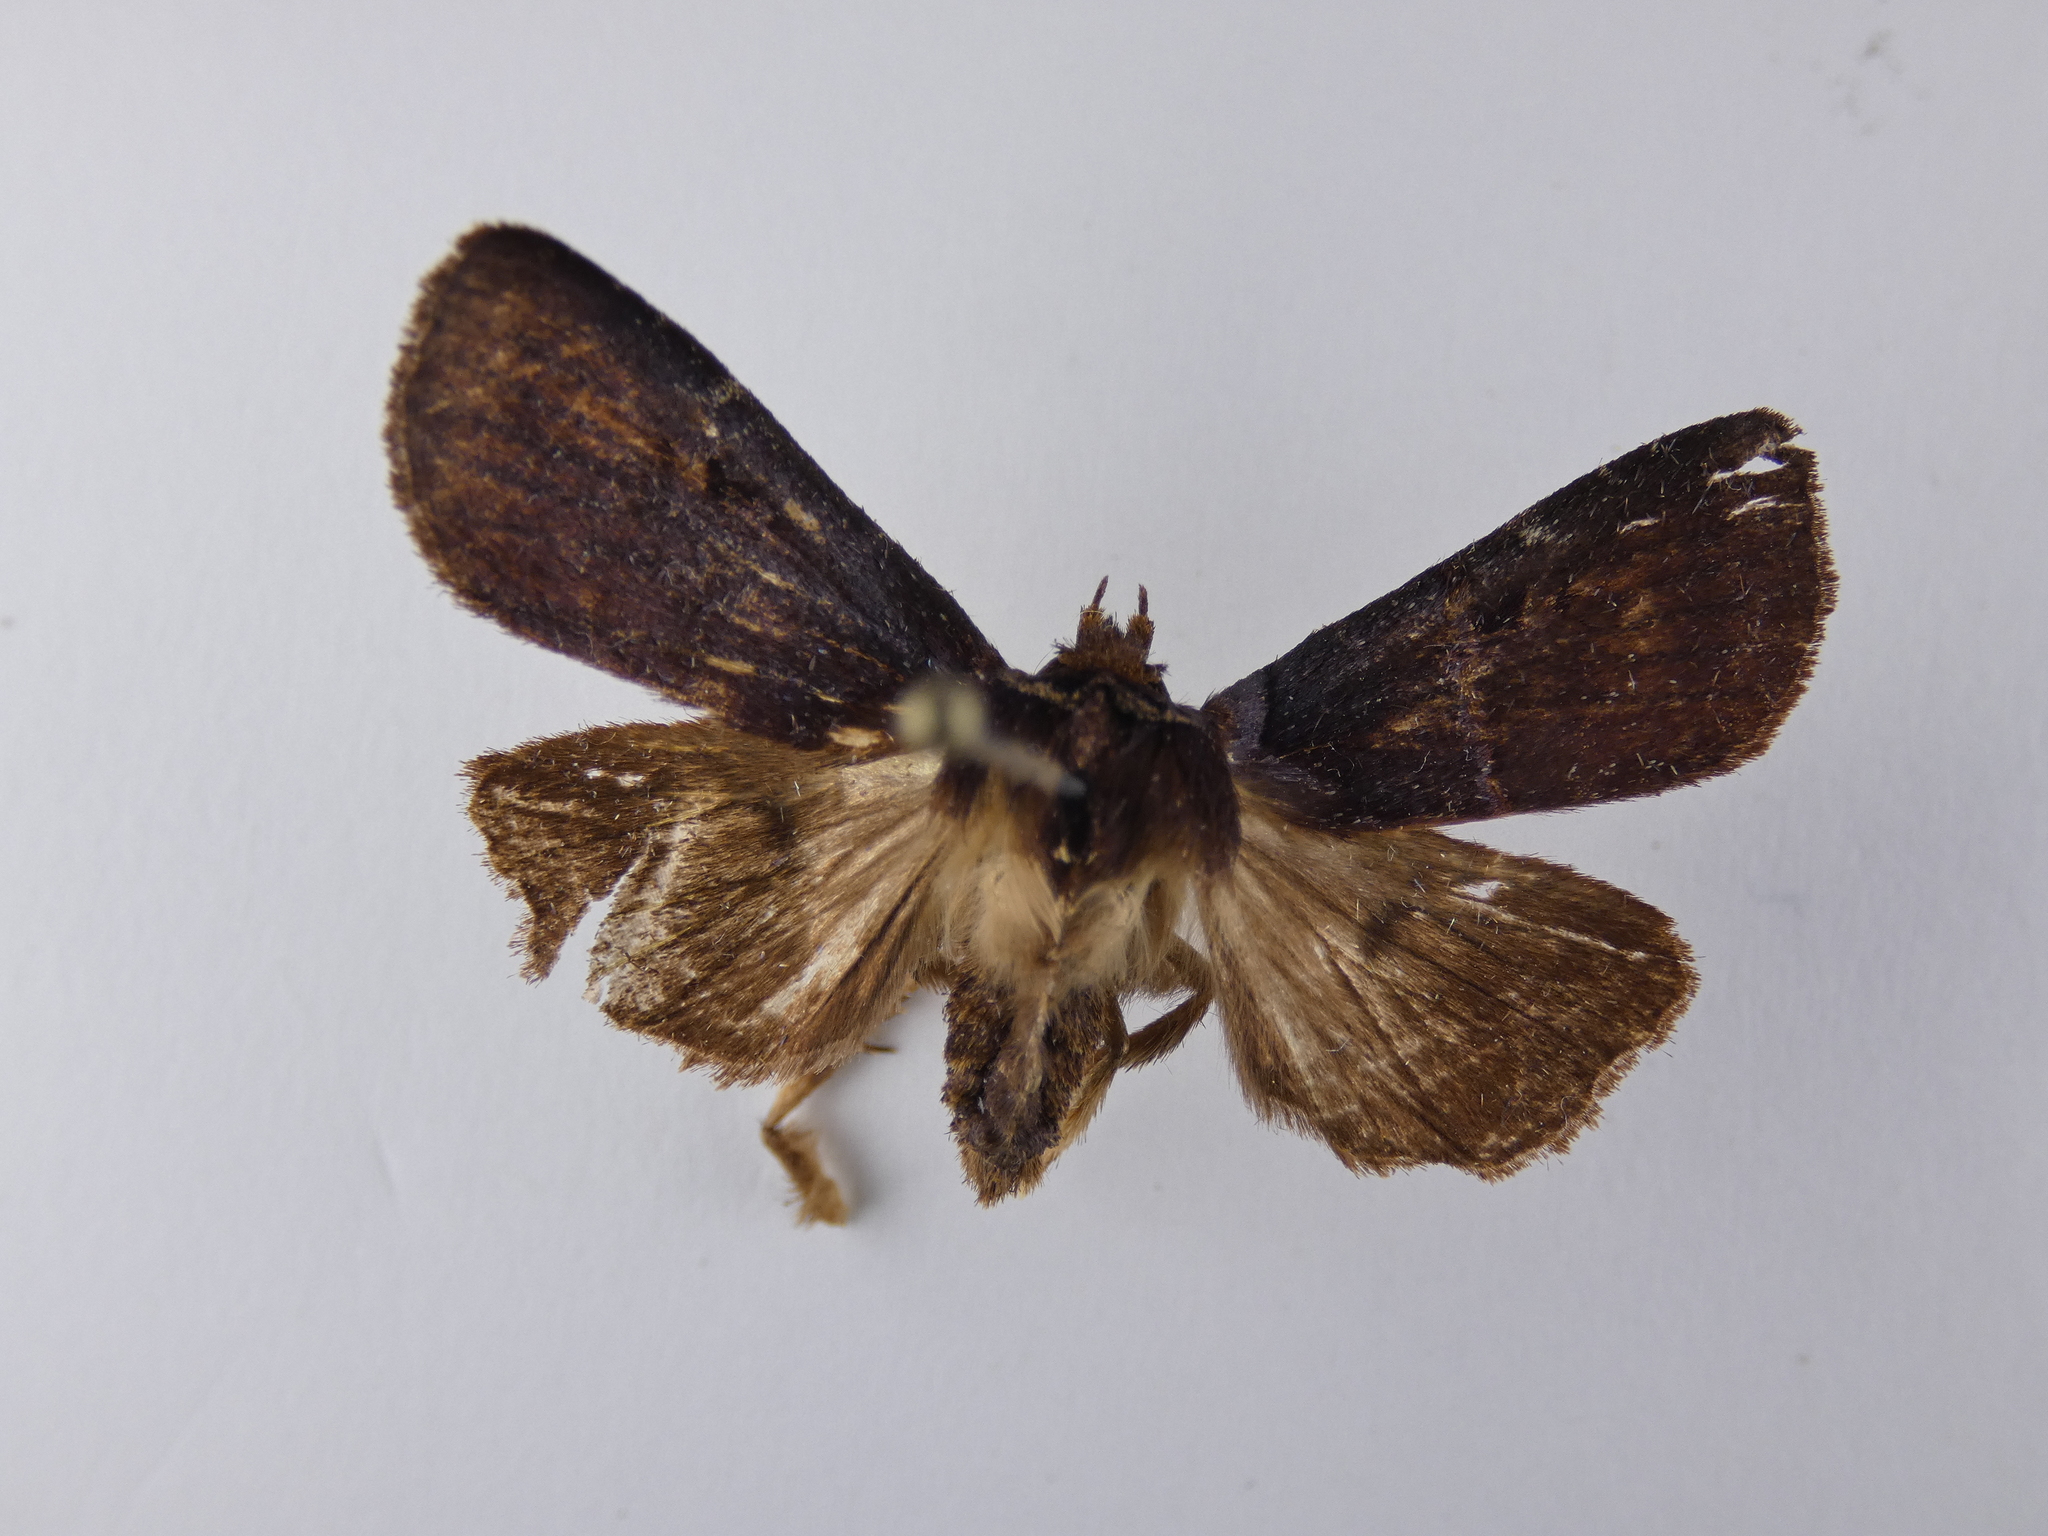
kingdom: Animalia
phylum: Arthropoda
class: Insecta
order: Lepidoptera
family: Noctuidae
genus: Austramathes
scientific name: Austramathes purpurea
